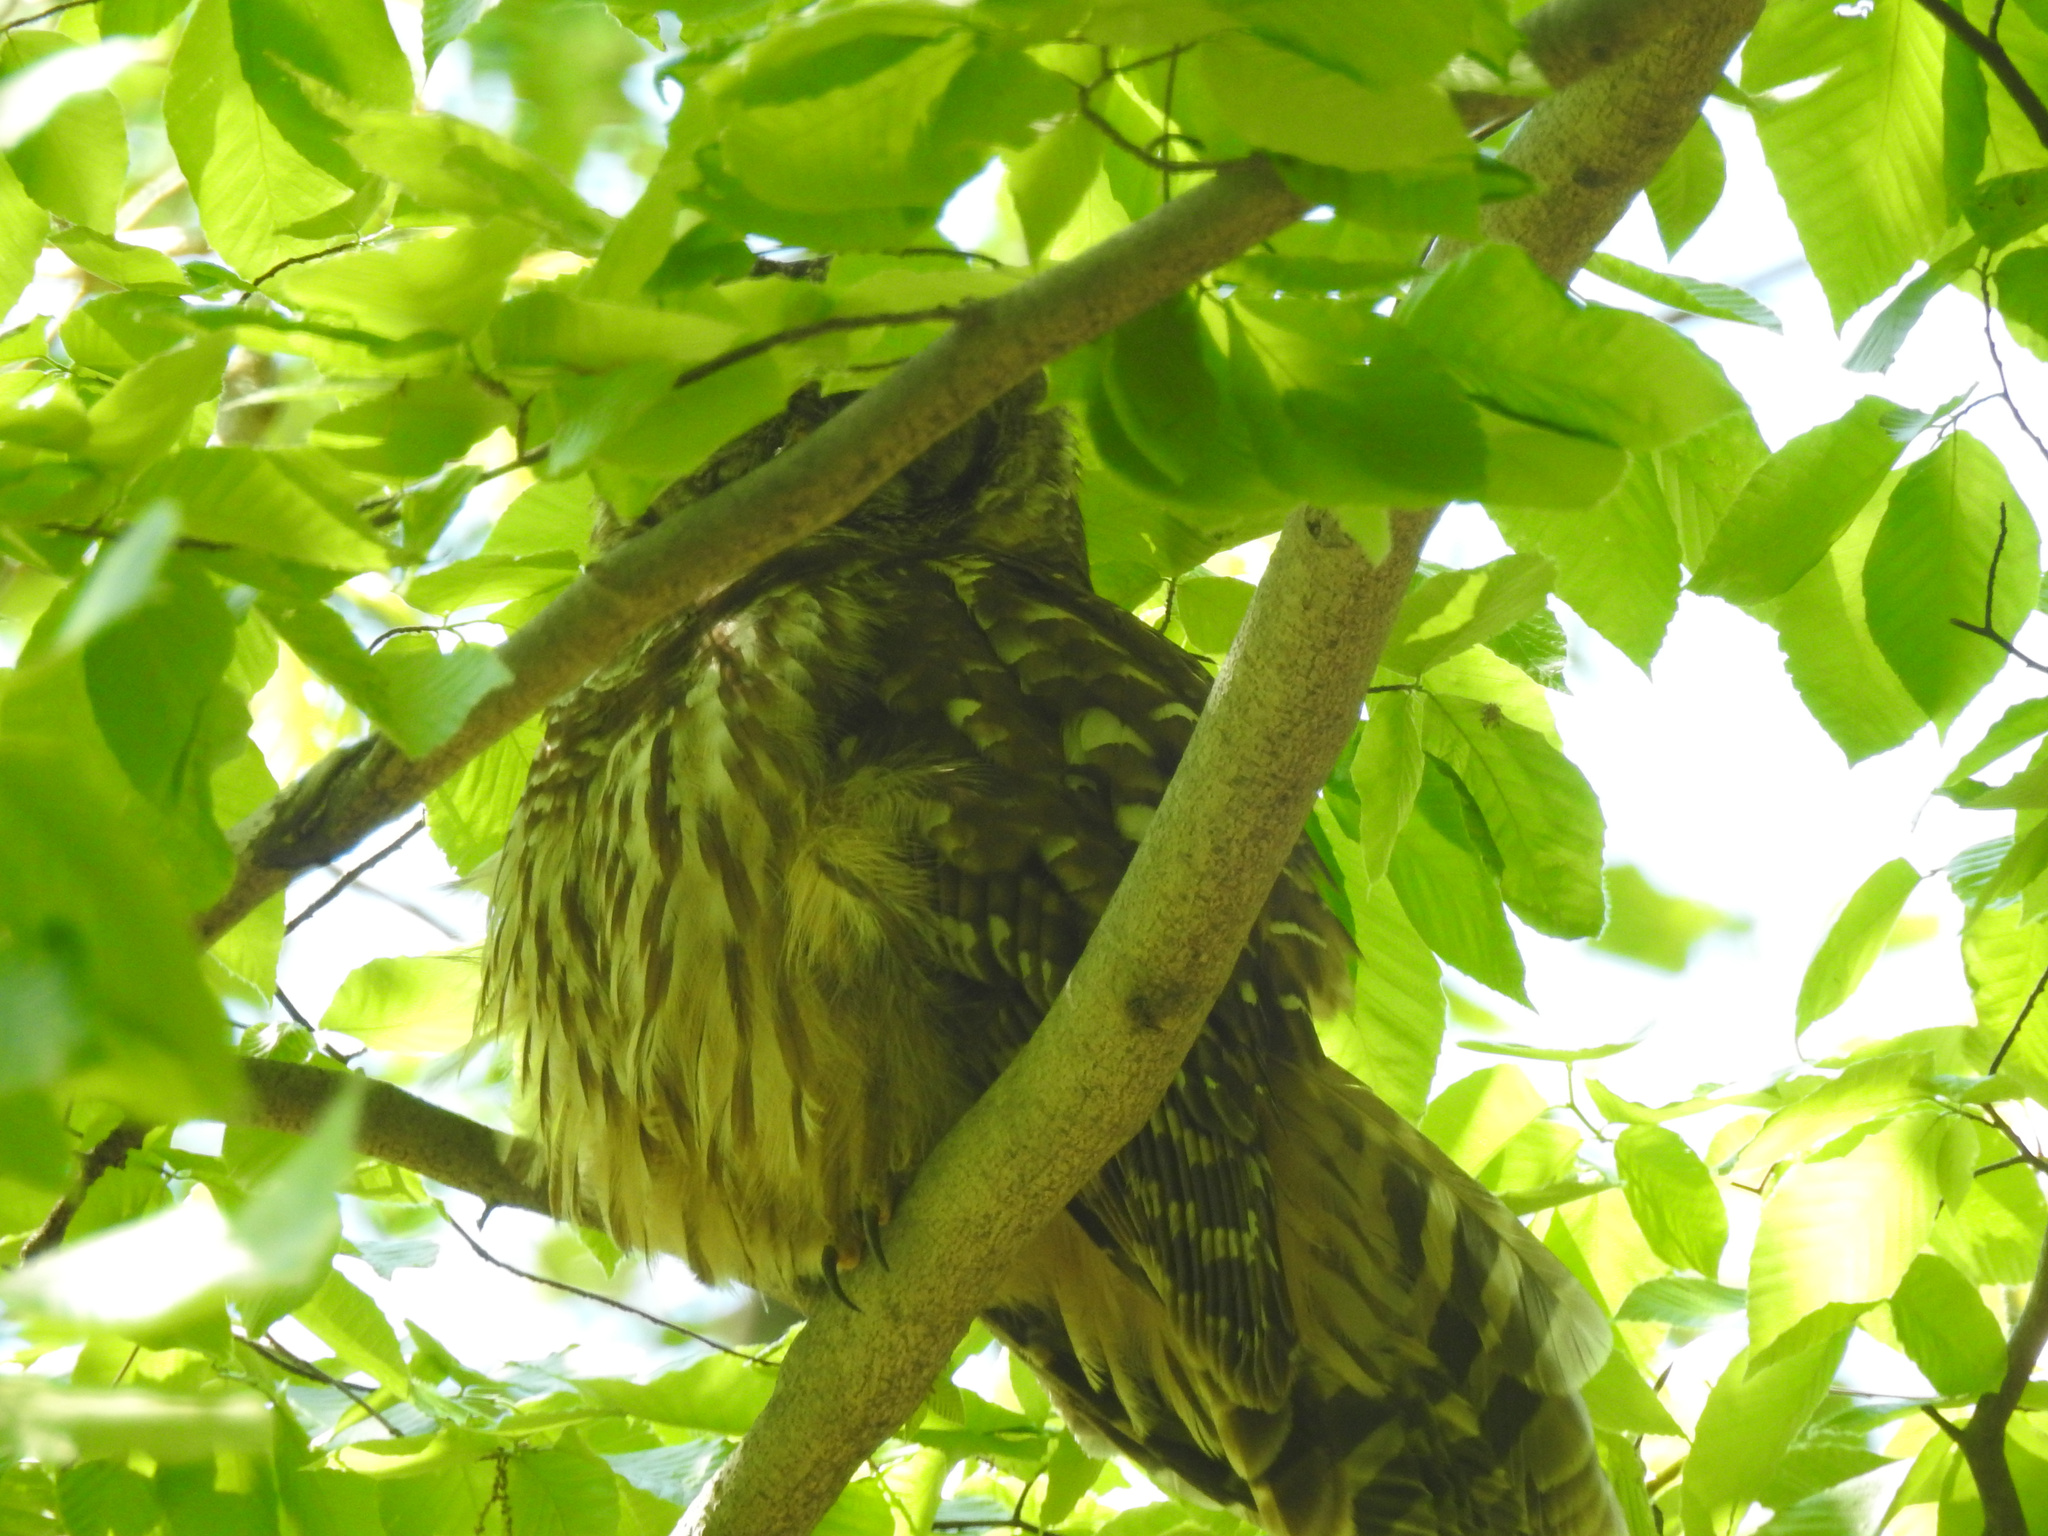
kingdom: Animalia
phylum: Chordata
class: Aves
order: Strigiformes
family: Strigidae
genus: Strix
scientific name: Strix varia
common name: Barred owl
